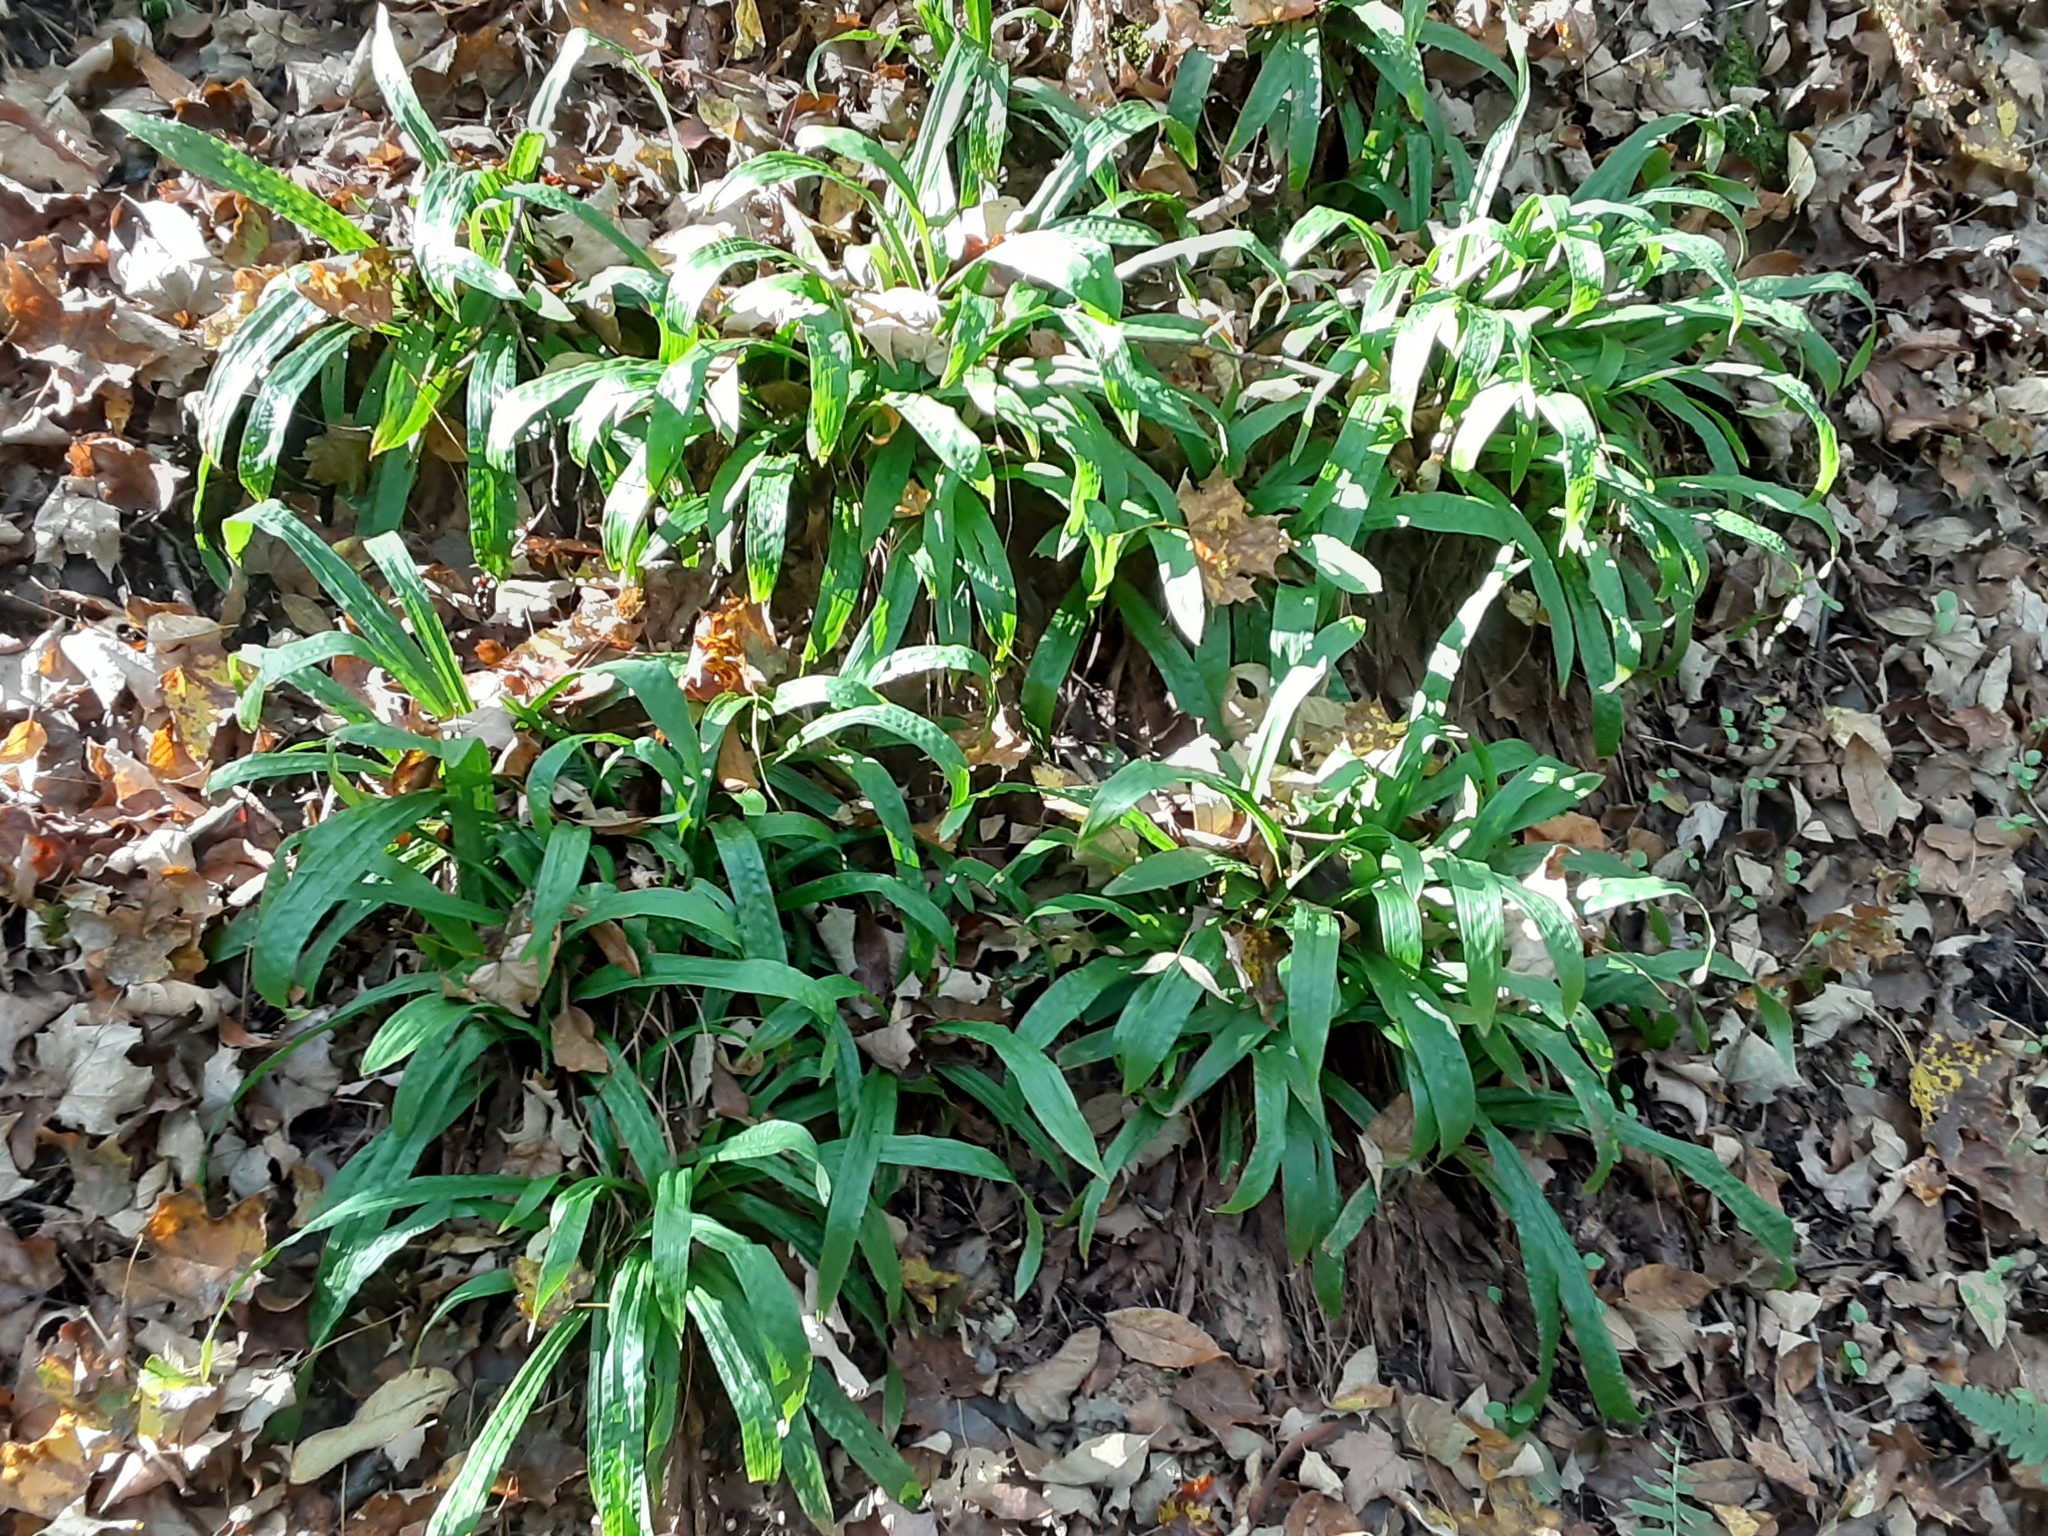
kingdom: Plantae
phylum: Tracheophyta
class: Liliopsida
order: Poales
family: Cyperaceae
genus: Carex
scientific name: Carex plantaginea
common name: Plantain-leaved sedge
